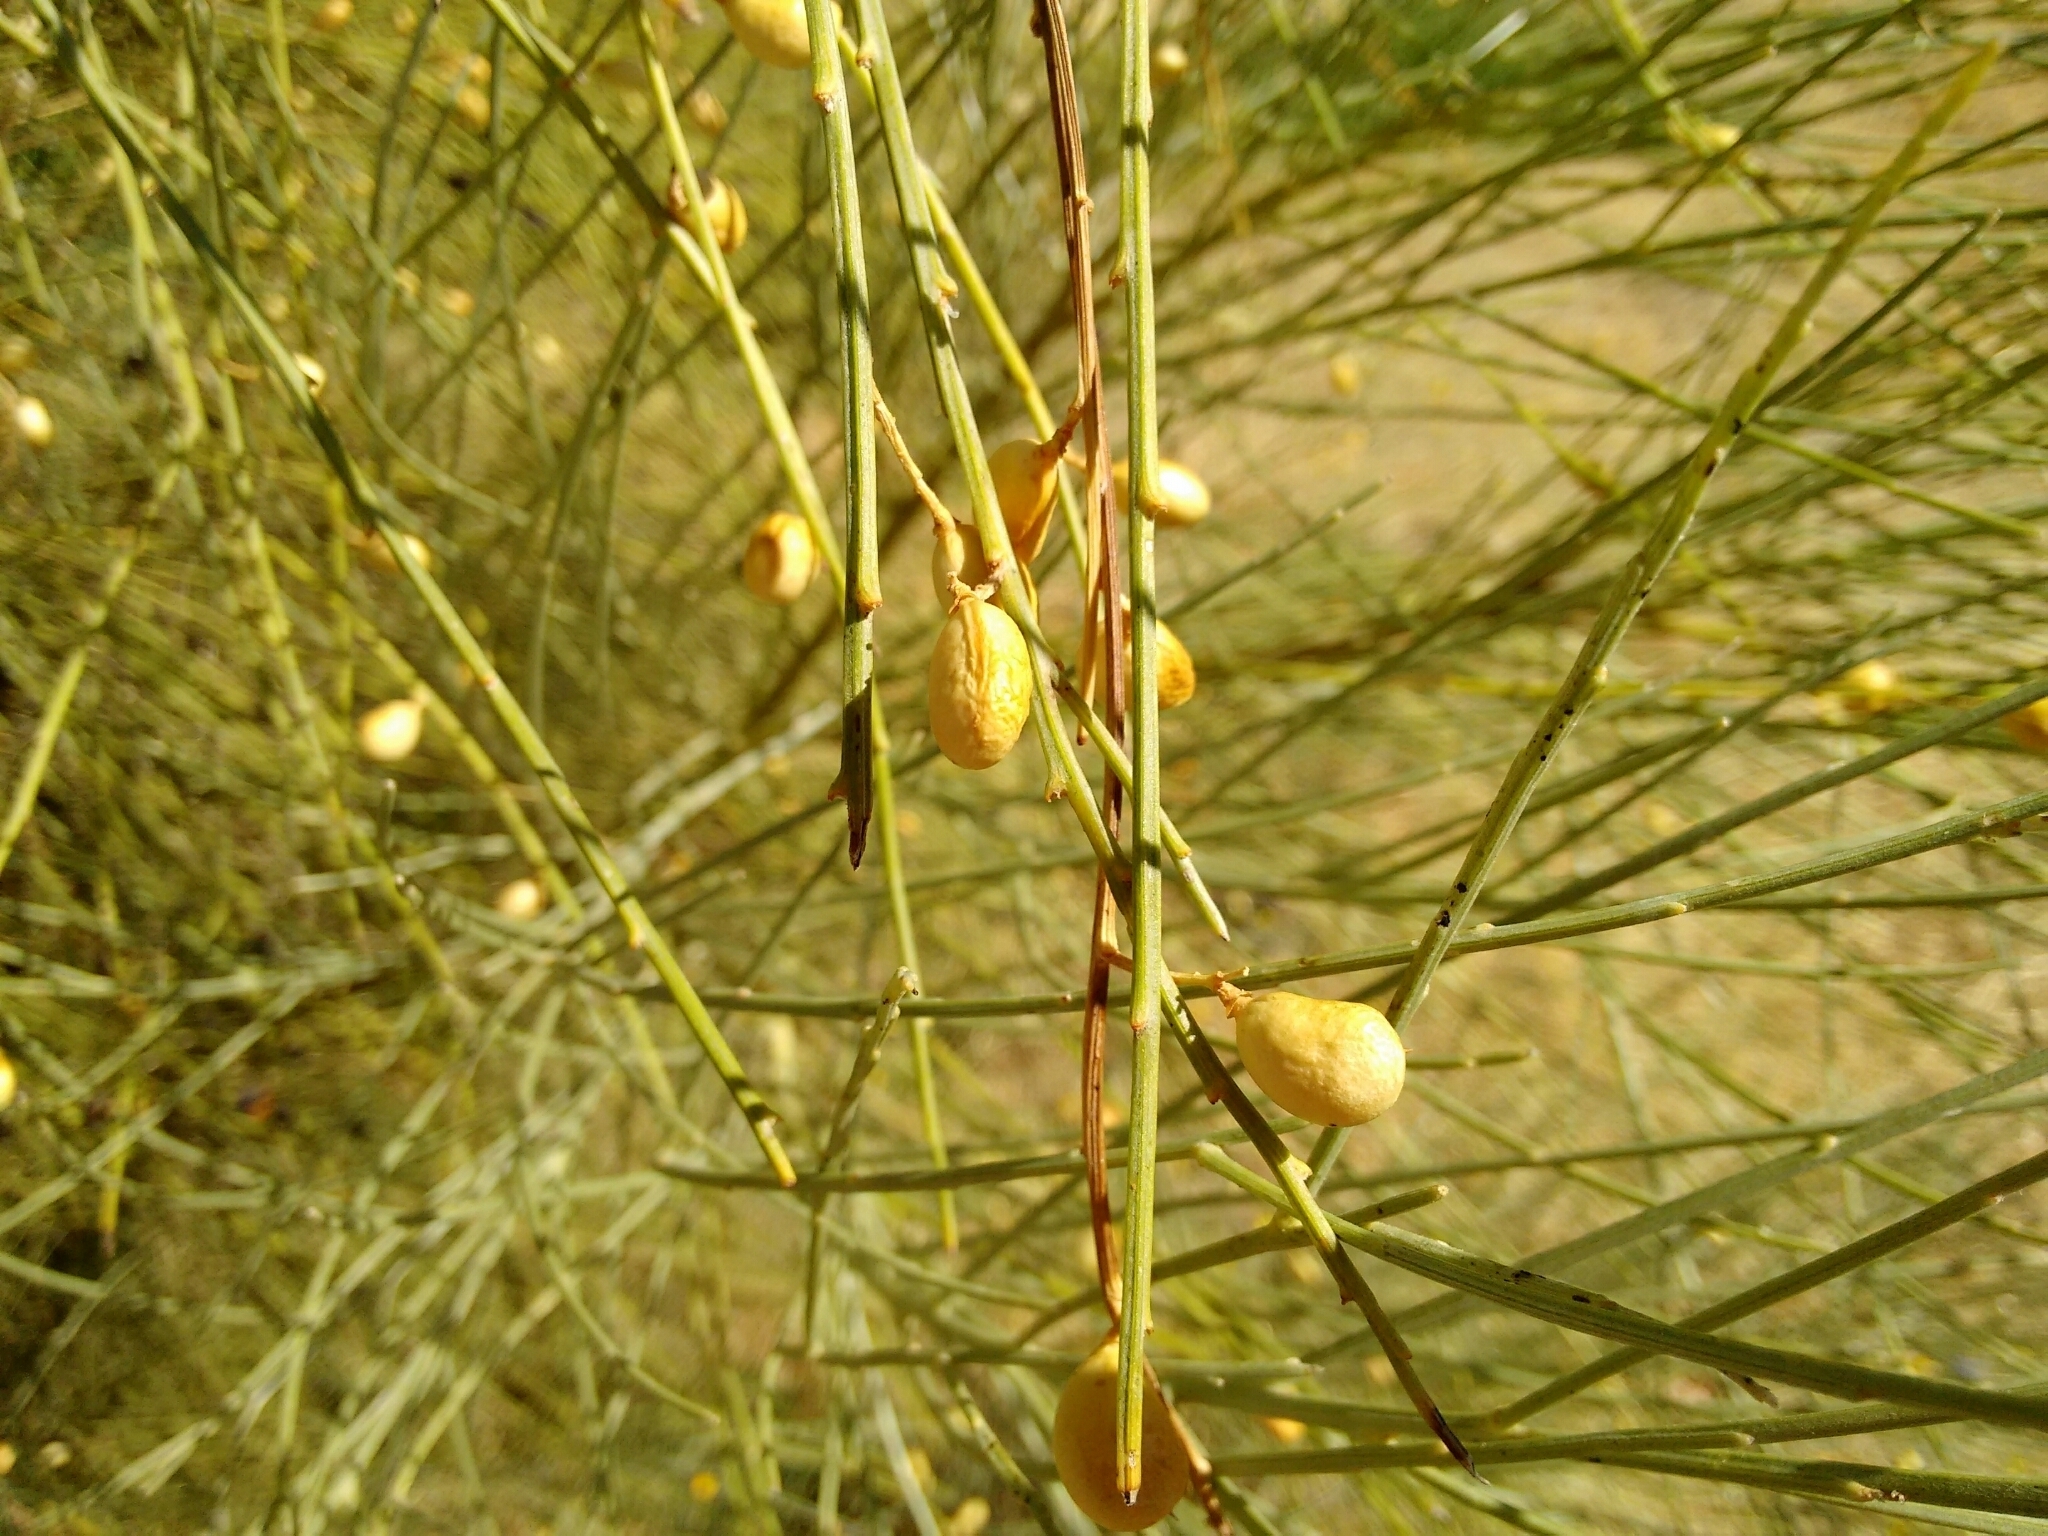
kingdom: Plantae
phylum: Tracheophyta
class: Magnoliopsida
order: Fabales
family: Fabaceae
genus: Retama
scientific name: Retama sphaerocarpa
